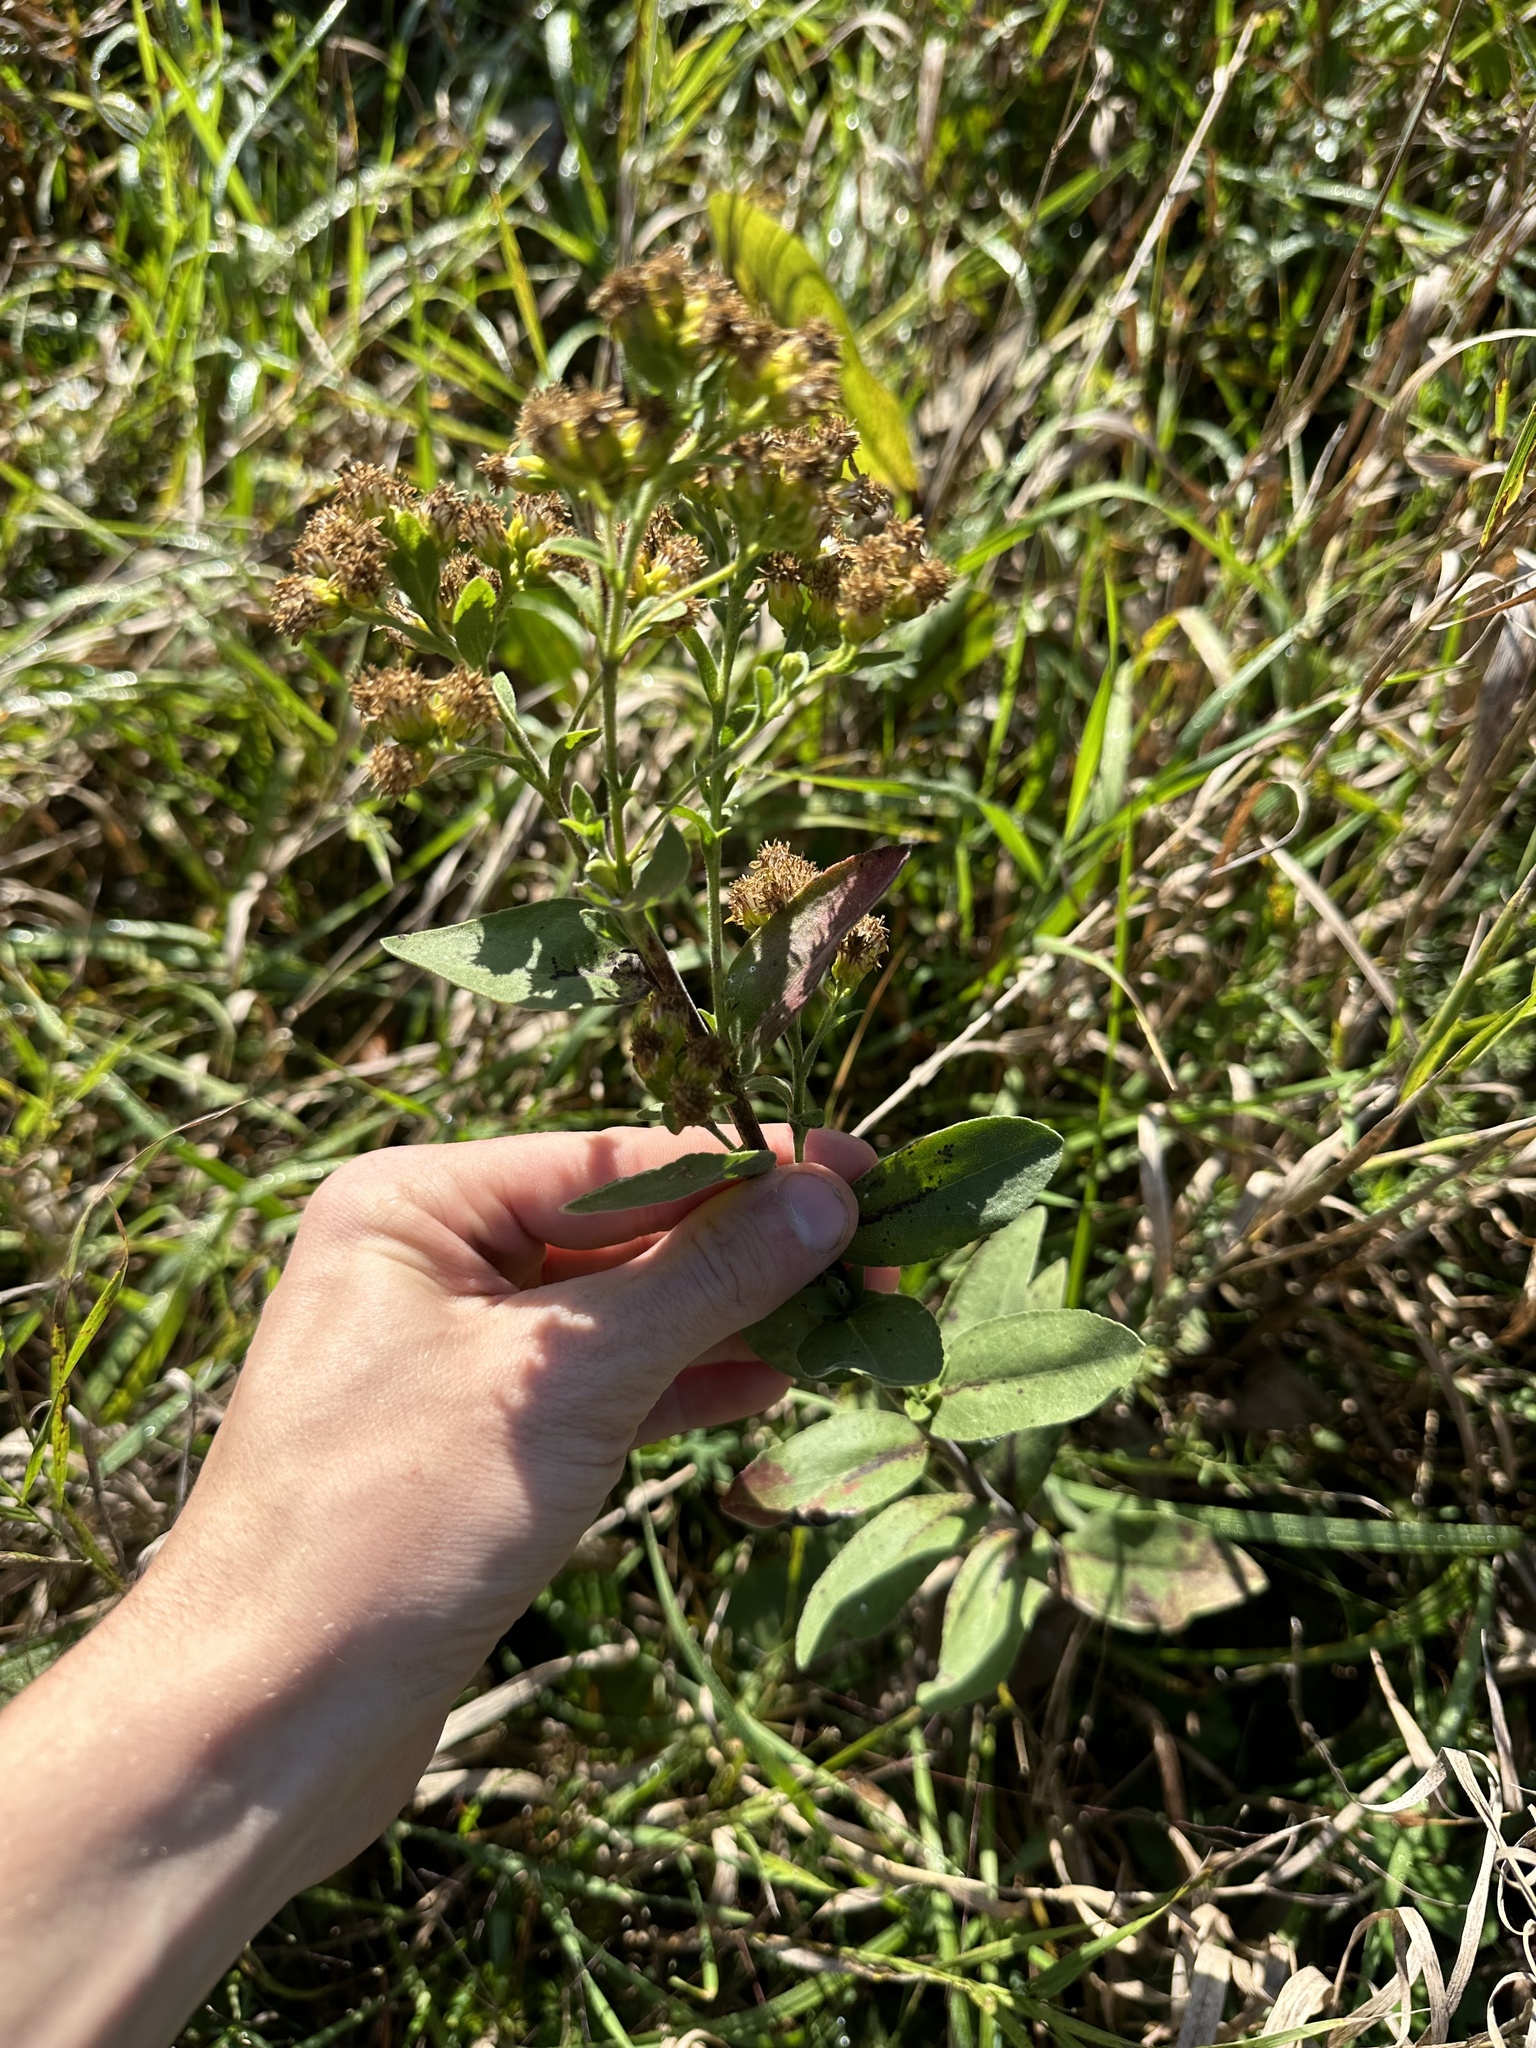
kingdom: Plantae
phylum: Tracheophyta
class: Magnoliopsida
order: Asterales
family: Asteraceae
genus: Solidago
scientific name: Solidago rigida
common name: Rigid goldenrod
